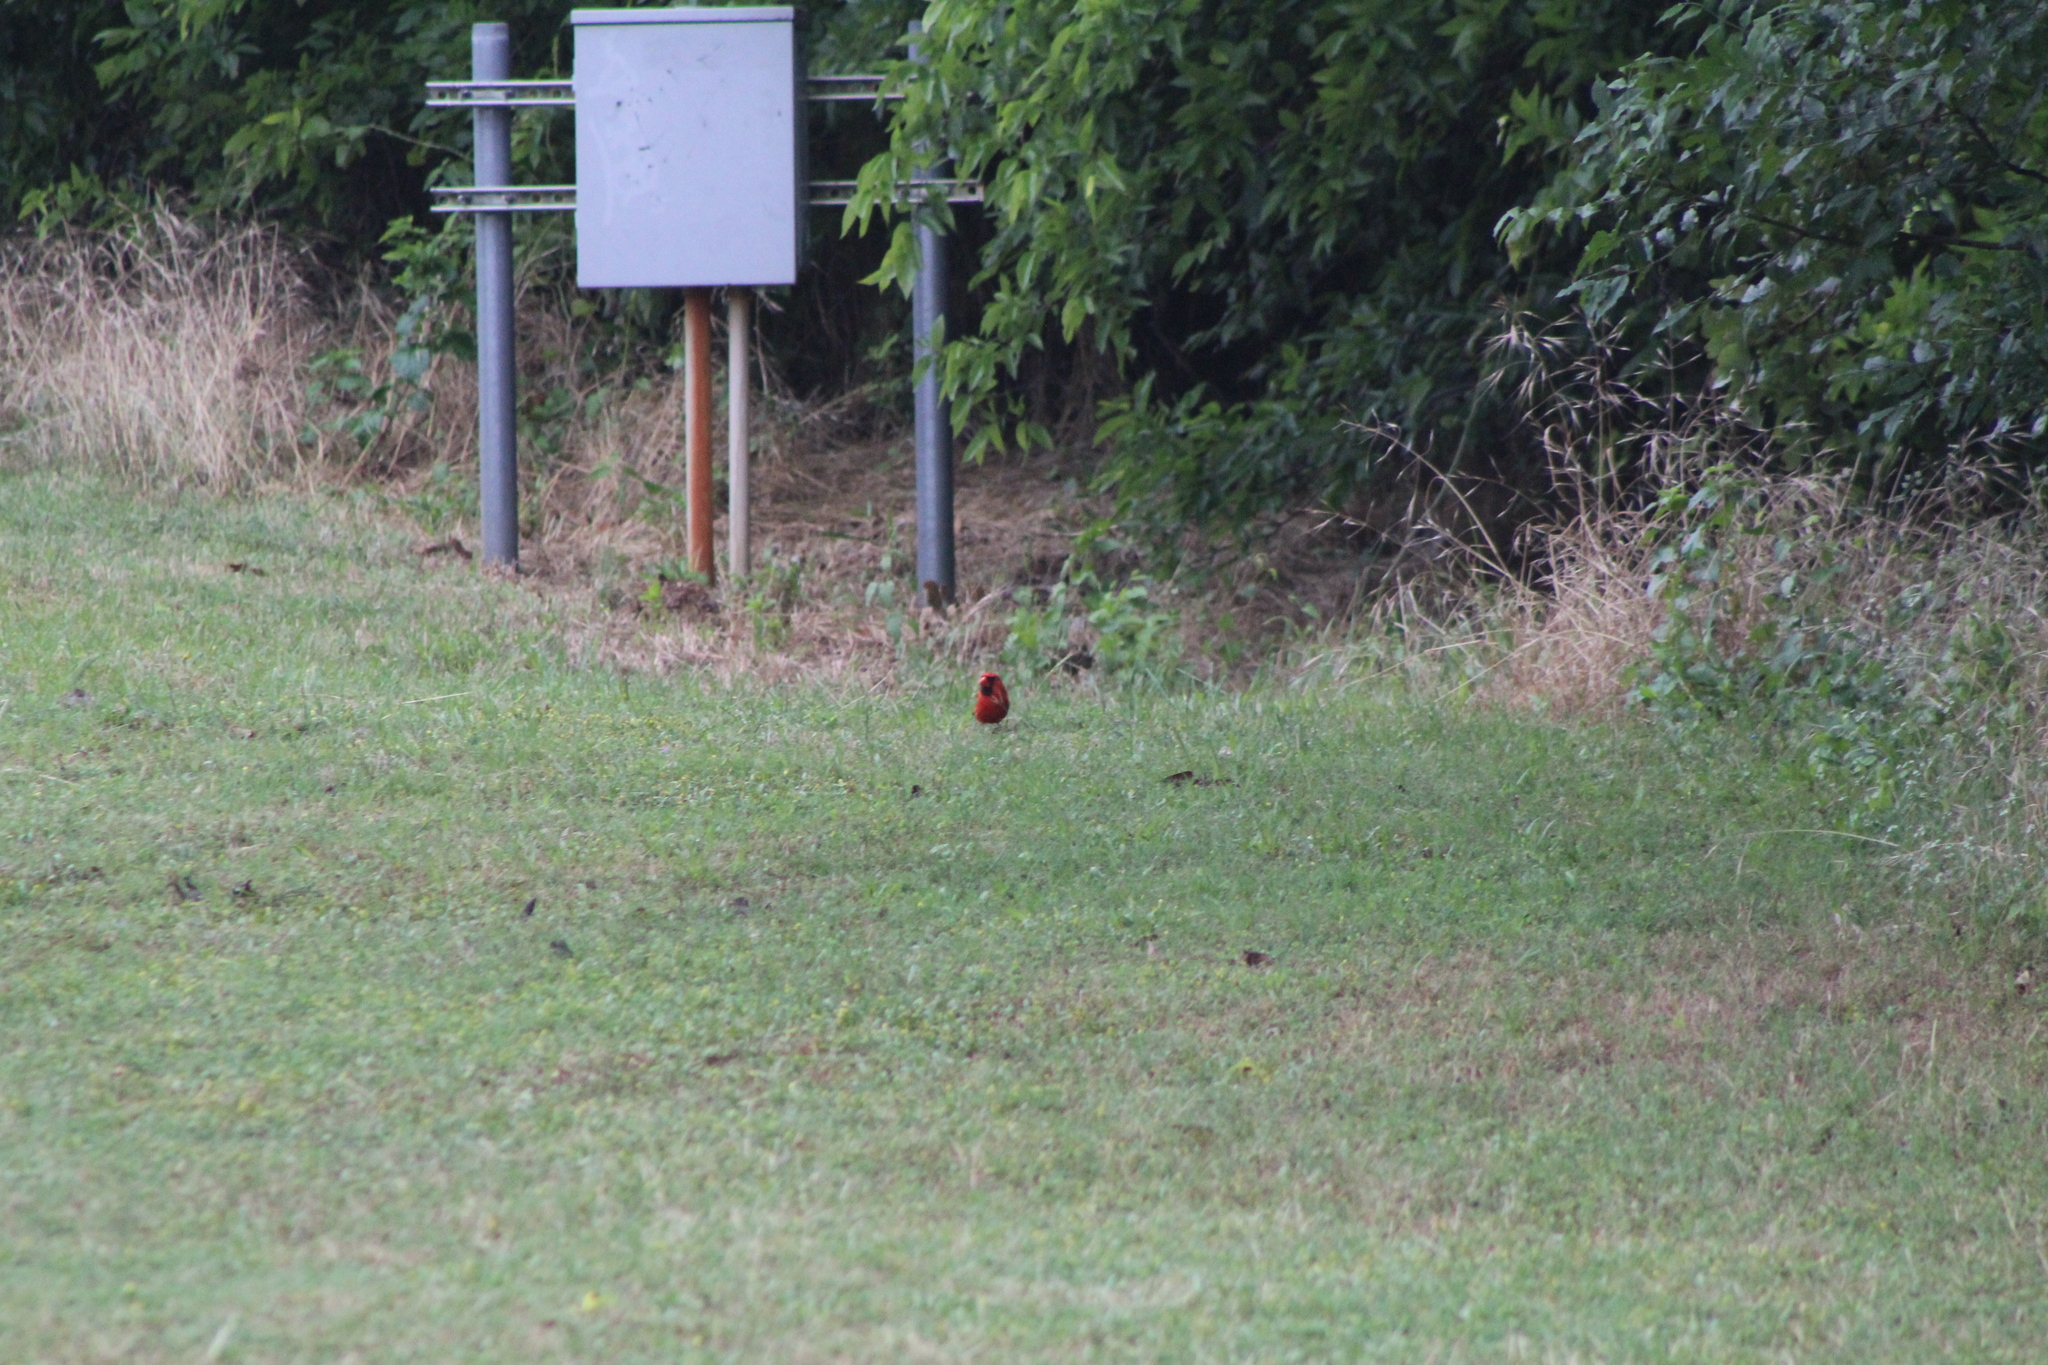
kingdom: Animalia
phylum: Chordata
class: Aves
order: Passeriformes
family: Cardinalidae
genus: Cardinalis
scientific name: Cardinalis cardinalis
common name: Northern cardinal
